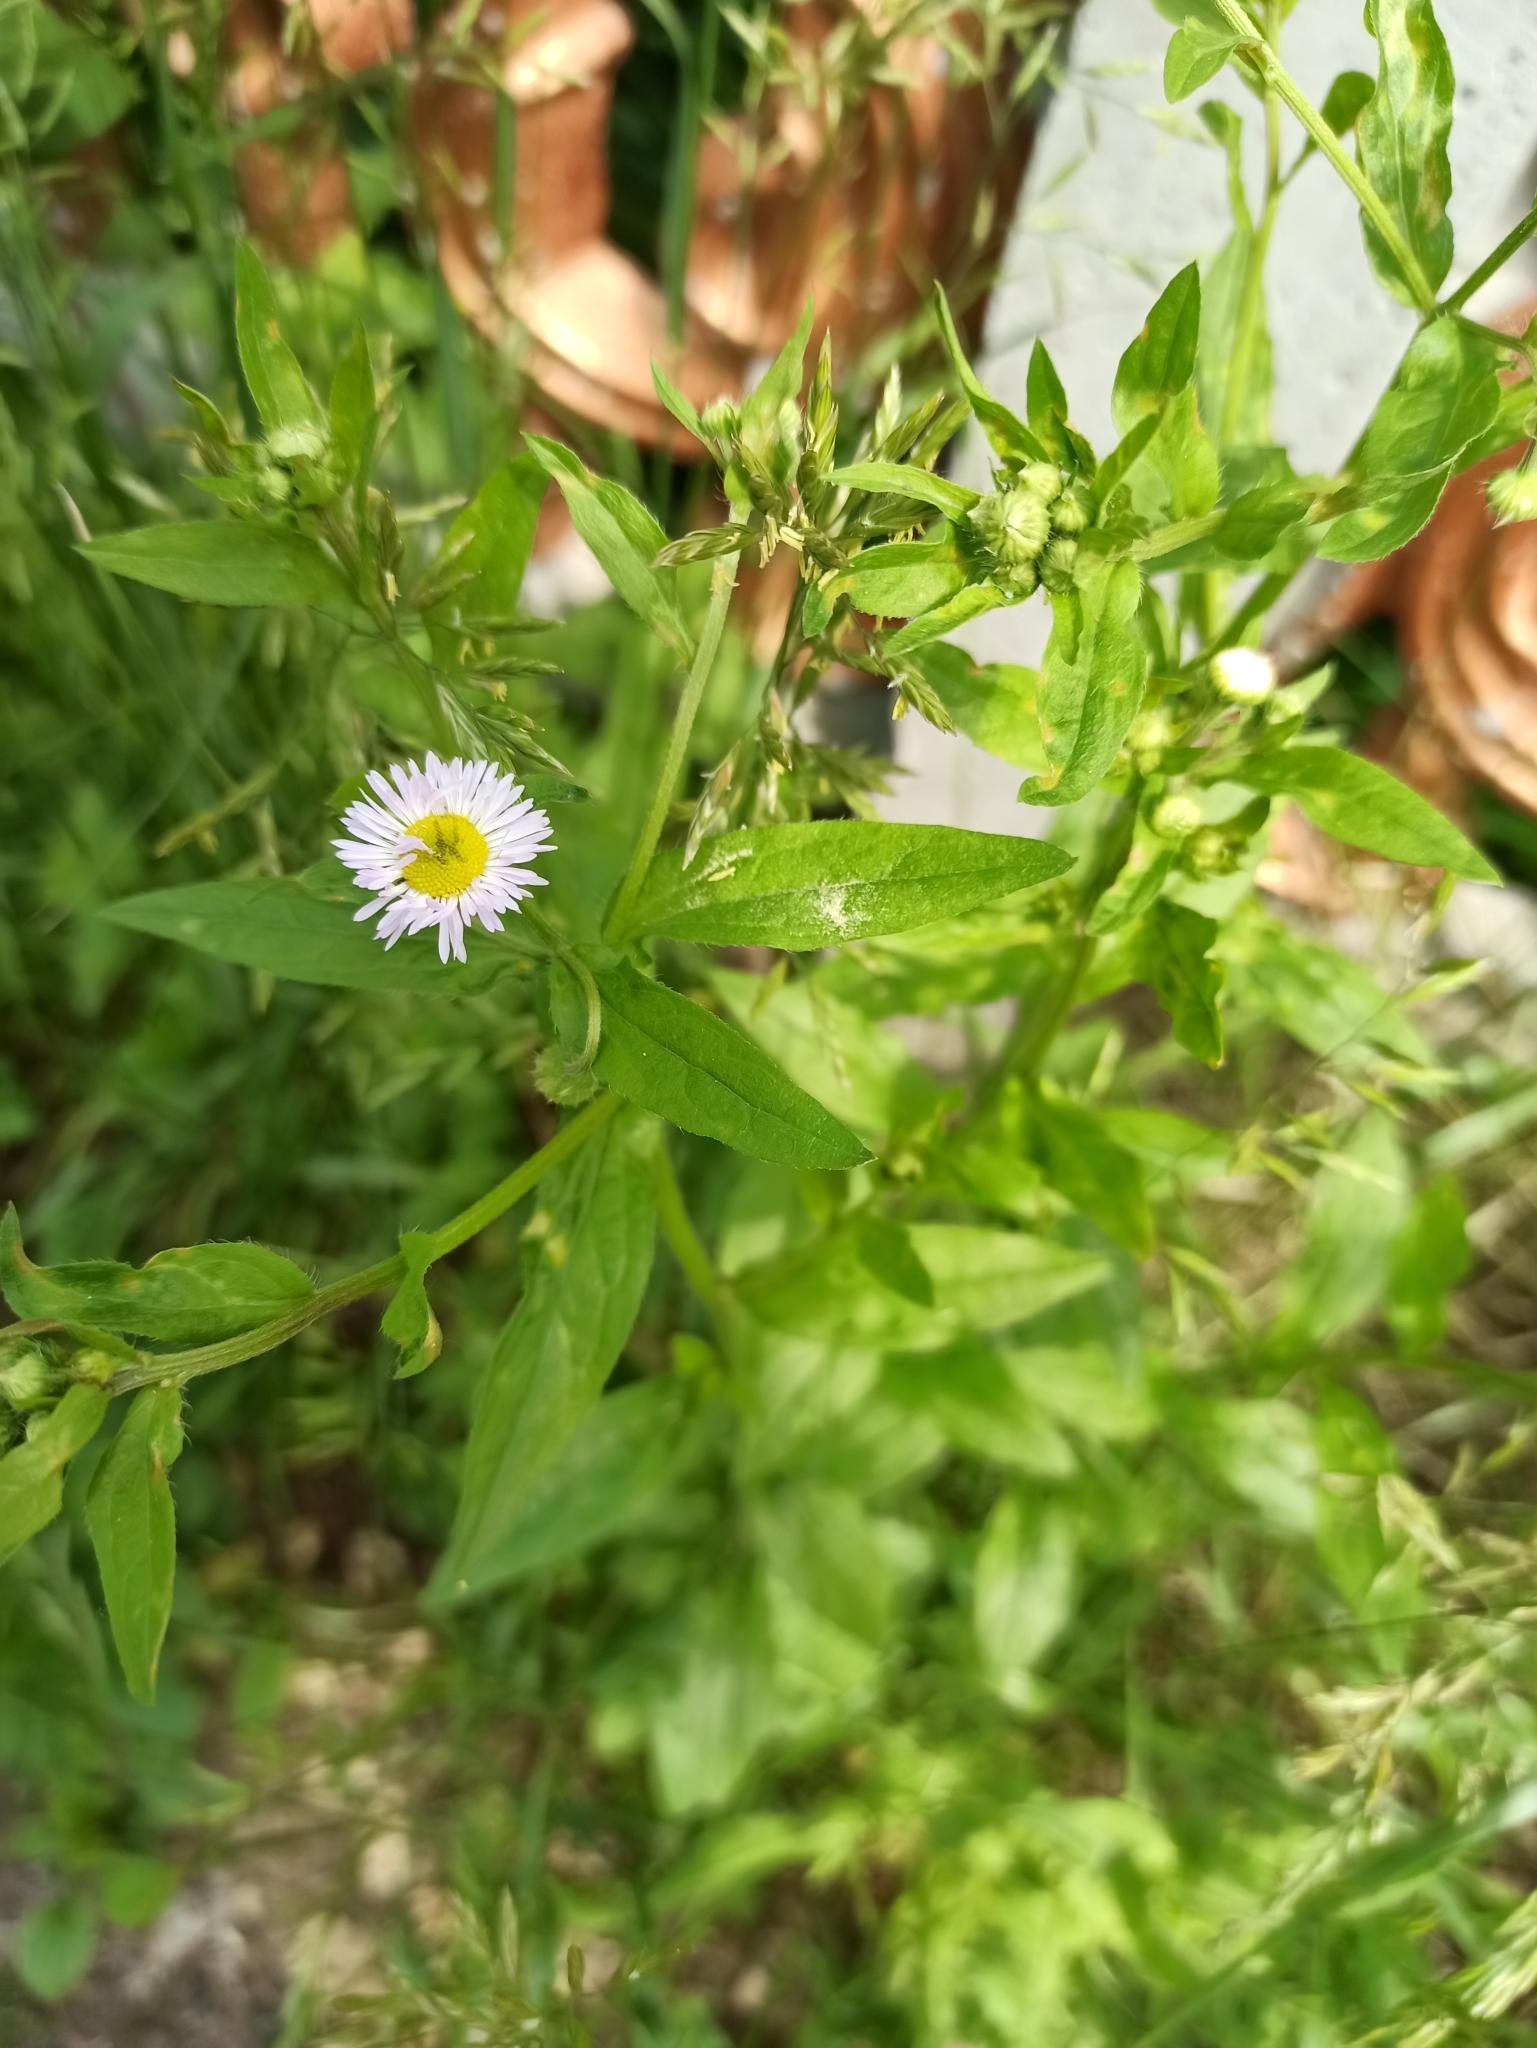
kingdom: Plantae
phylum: Tracheophyta
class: Magnoliopsida
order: Asterales
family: Asteraceae
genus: Erigeron
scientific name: Erigeron annuus
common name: Tall fleabane
